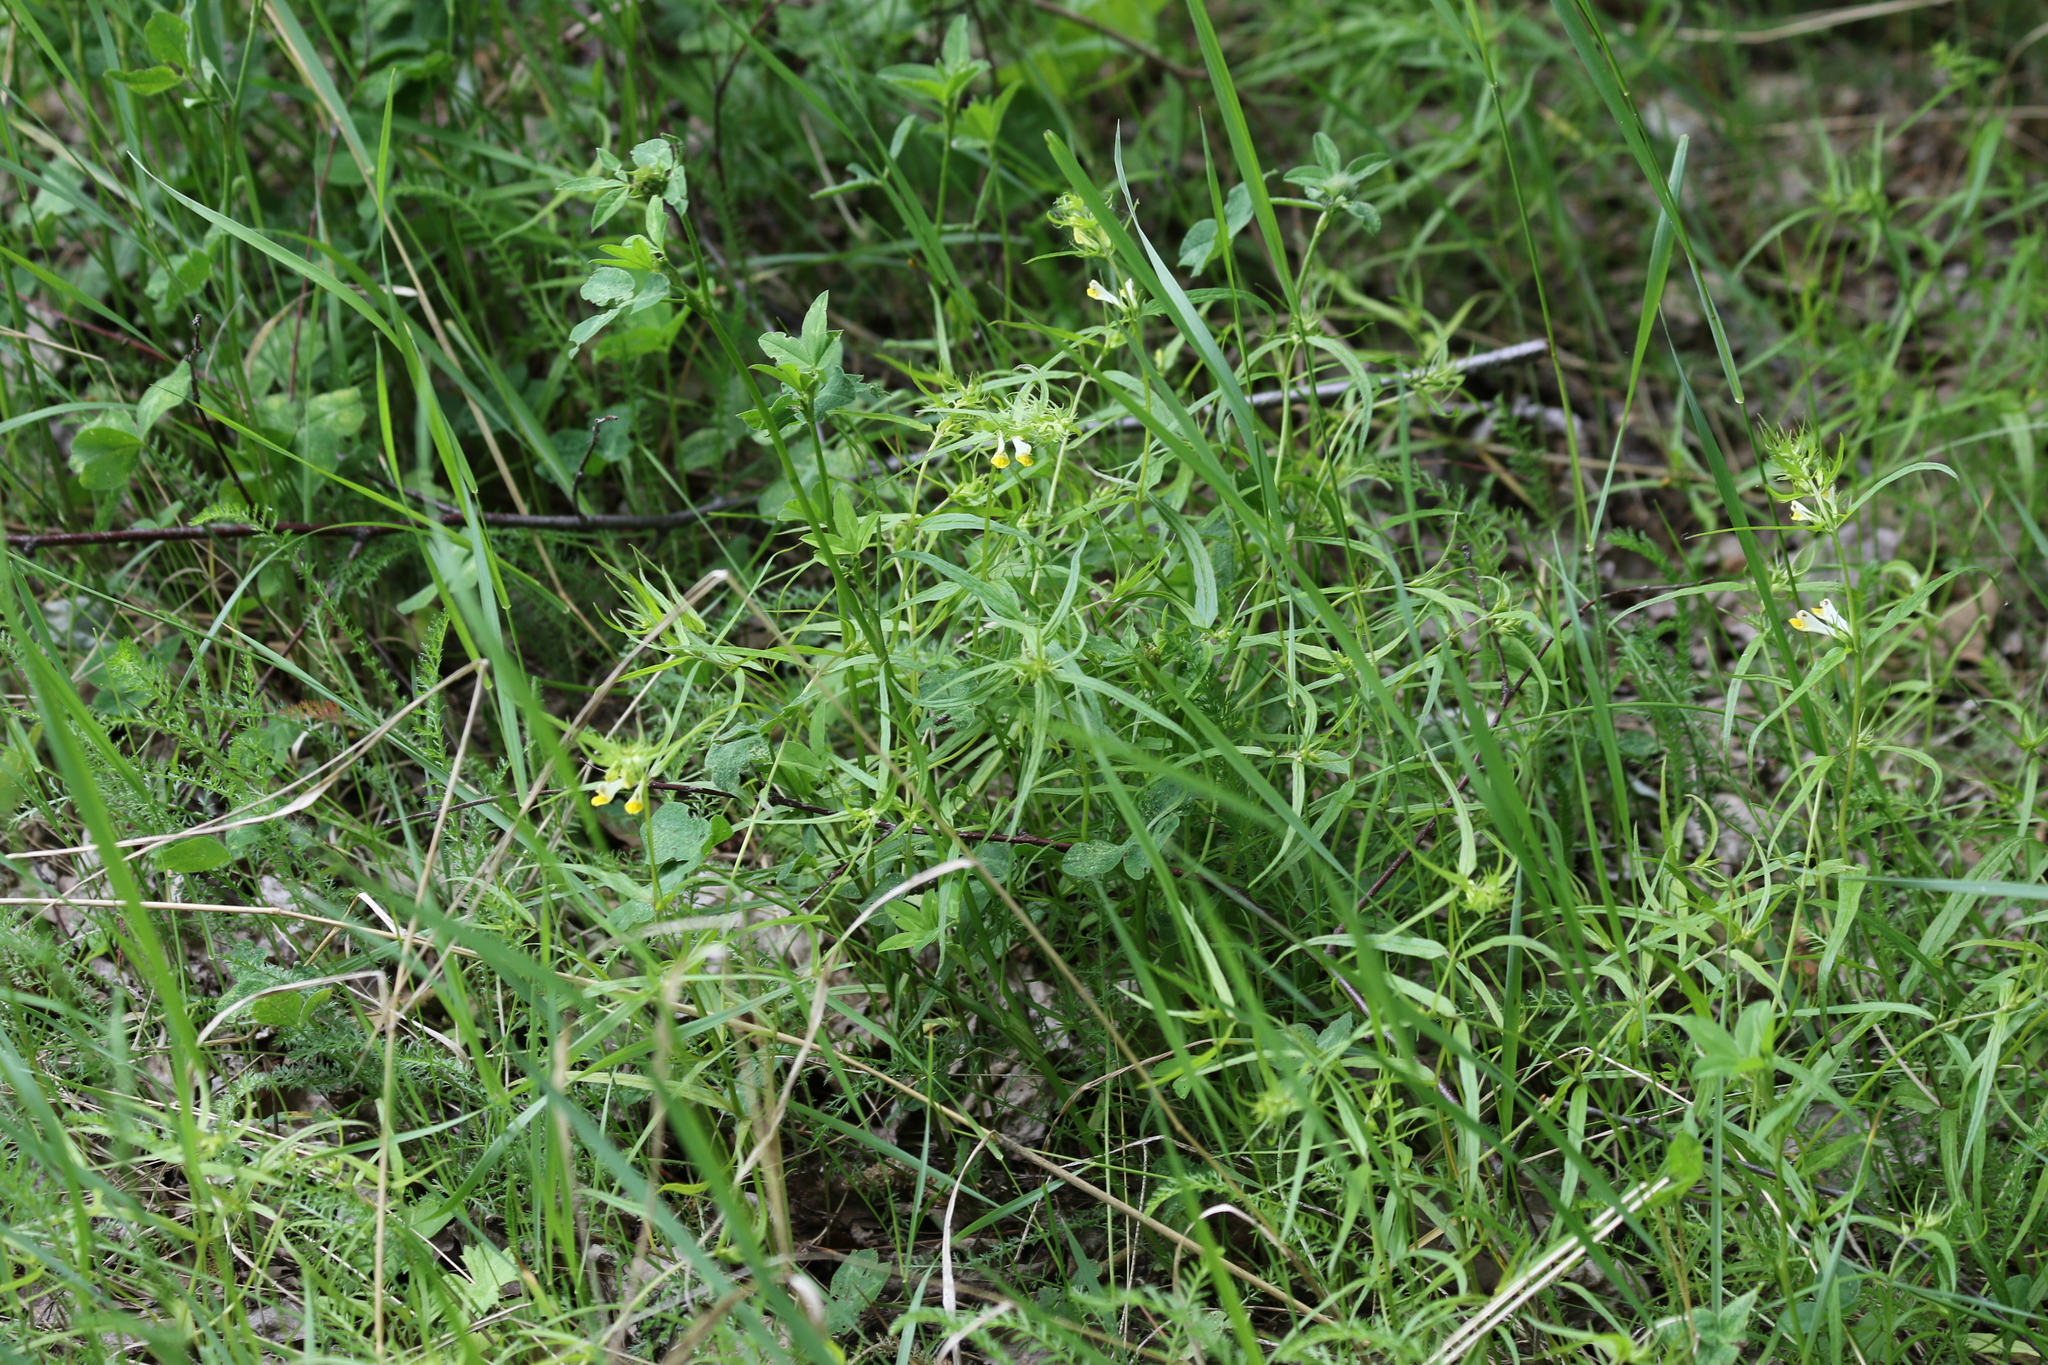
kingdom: Plantae
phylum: Tracheophyta
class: Magnoliopsida
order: Lamiales
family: Orobanchaceae
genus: Melampyrum
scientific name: Melampyrum pratense
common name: Common cow-wheat
